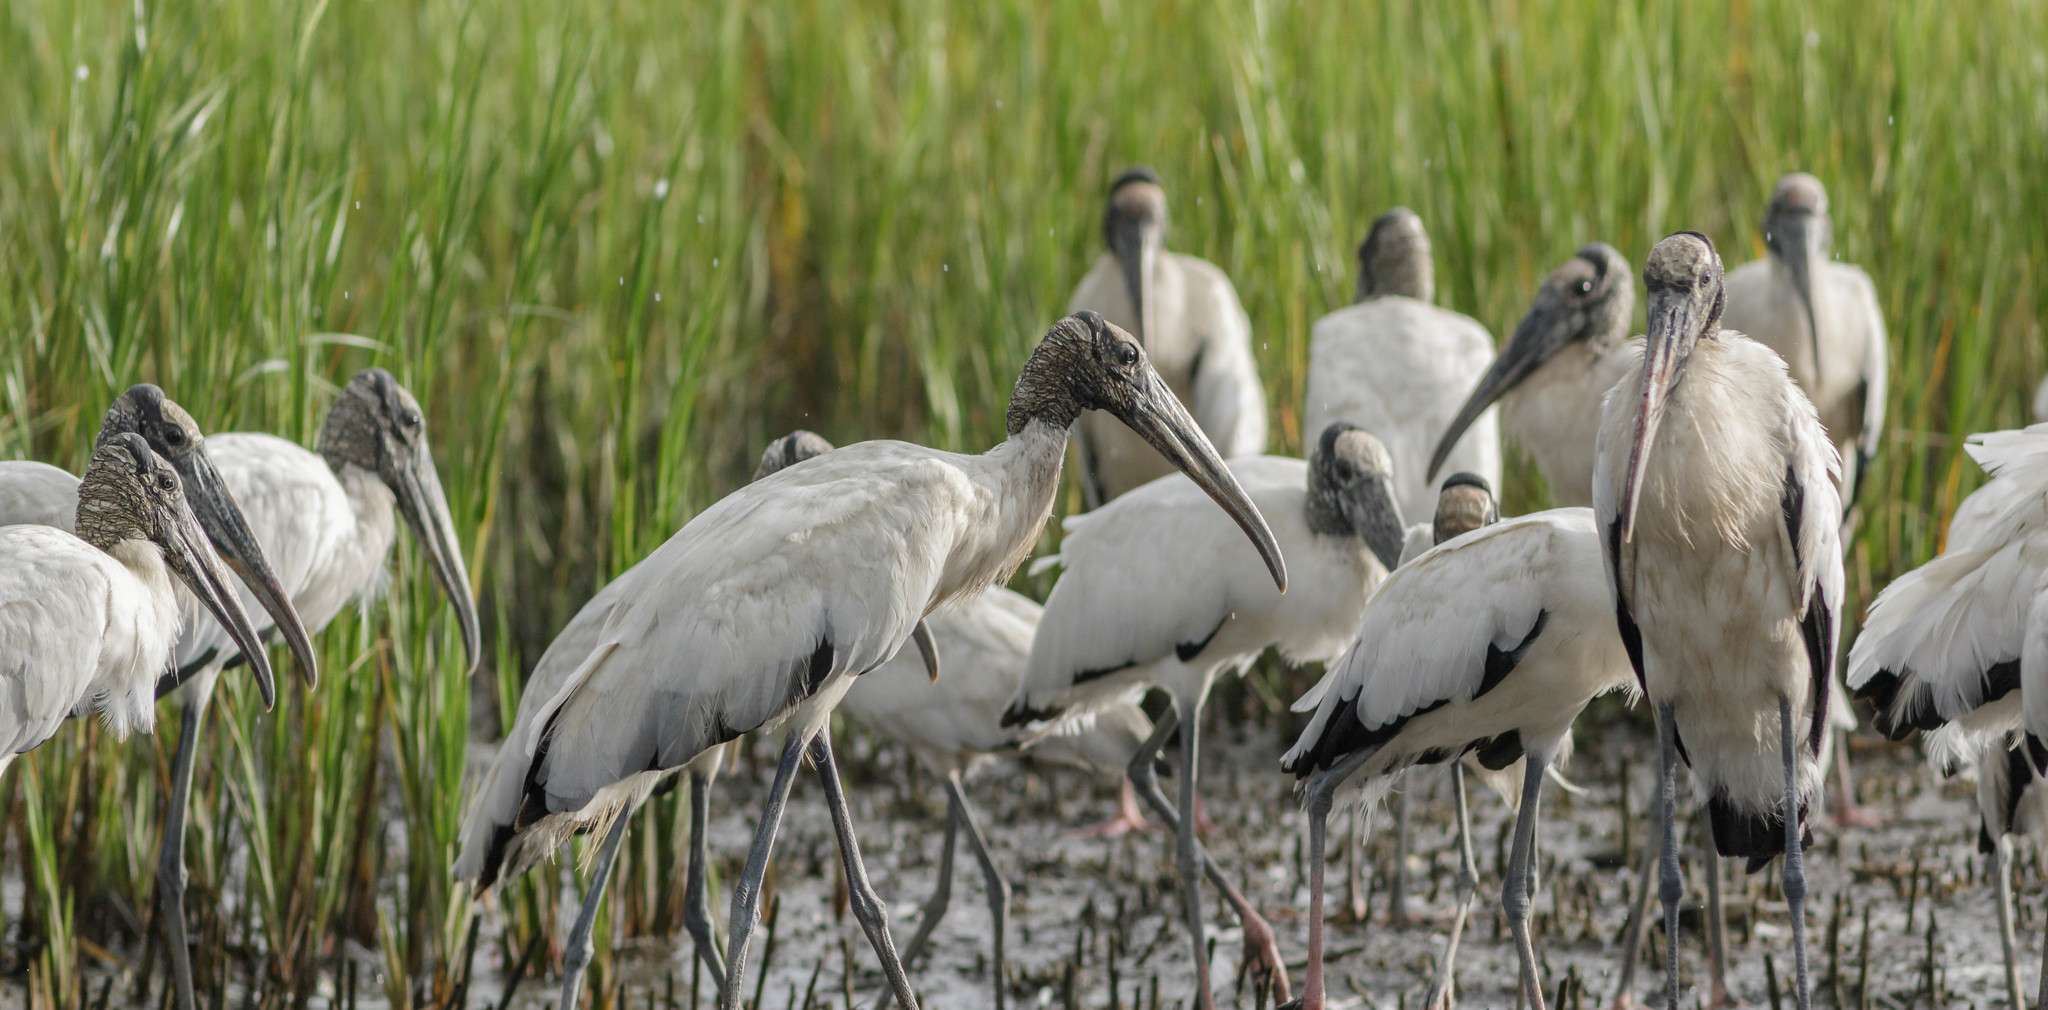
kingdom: Animalia
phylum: Chordata
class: Aves
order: Ciconiiformes
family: Ciconiidae
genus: Mycteria
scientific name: Mycteria americana
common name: Wood stork
